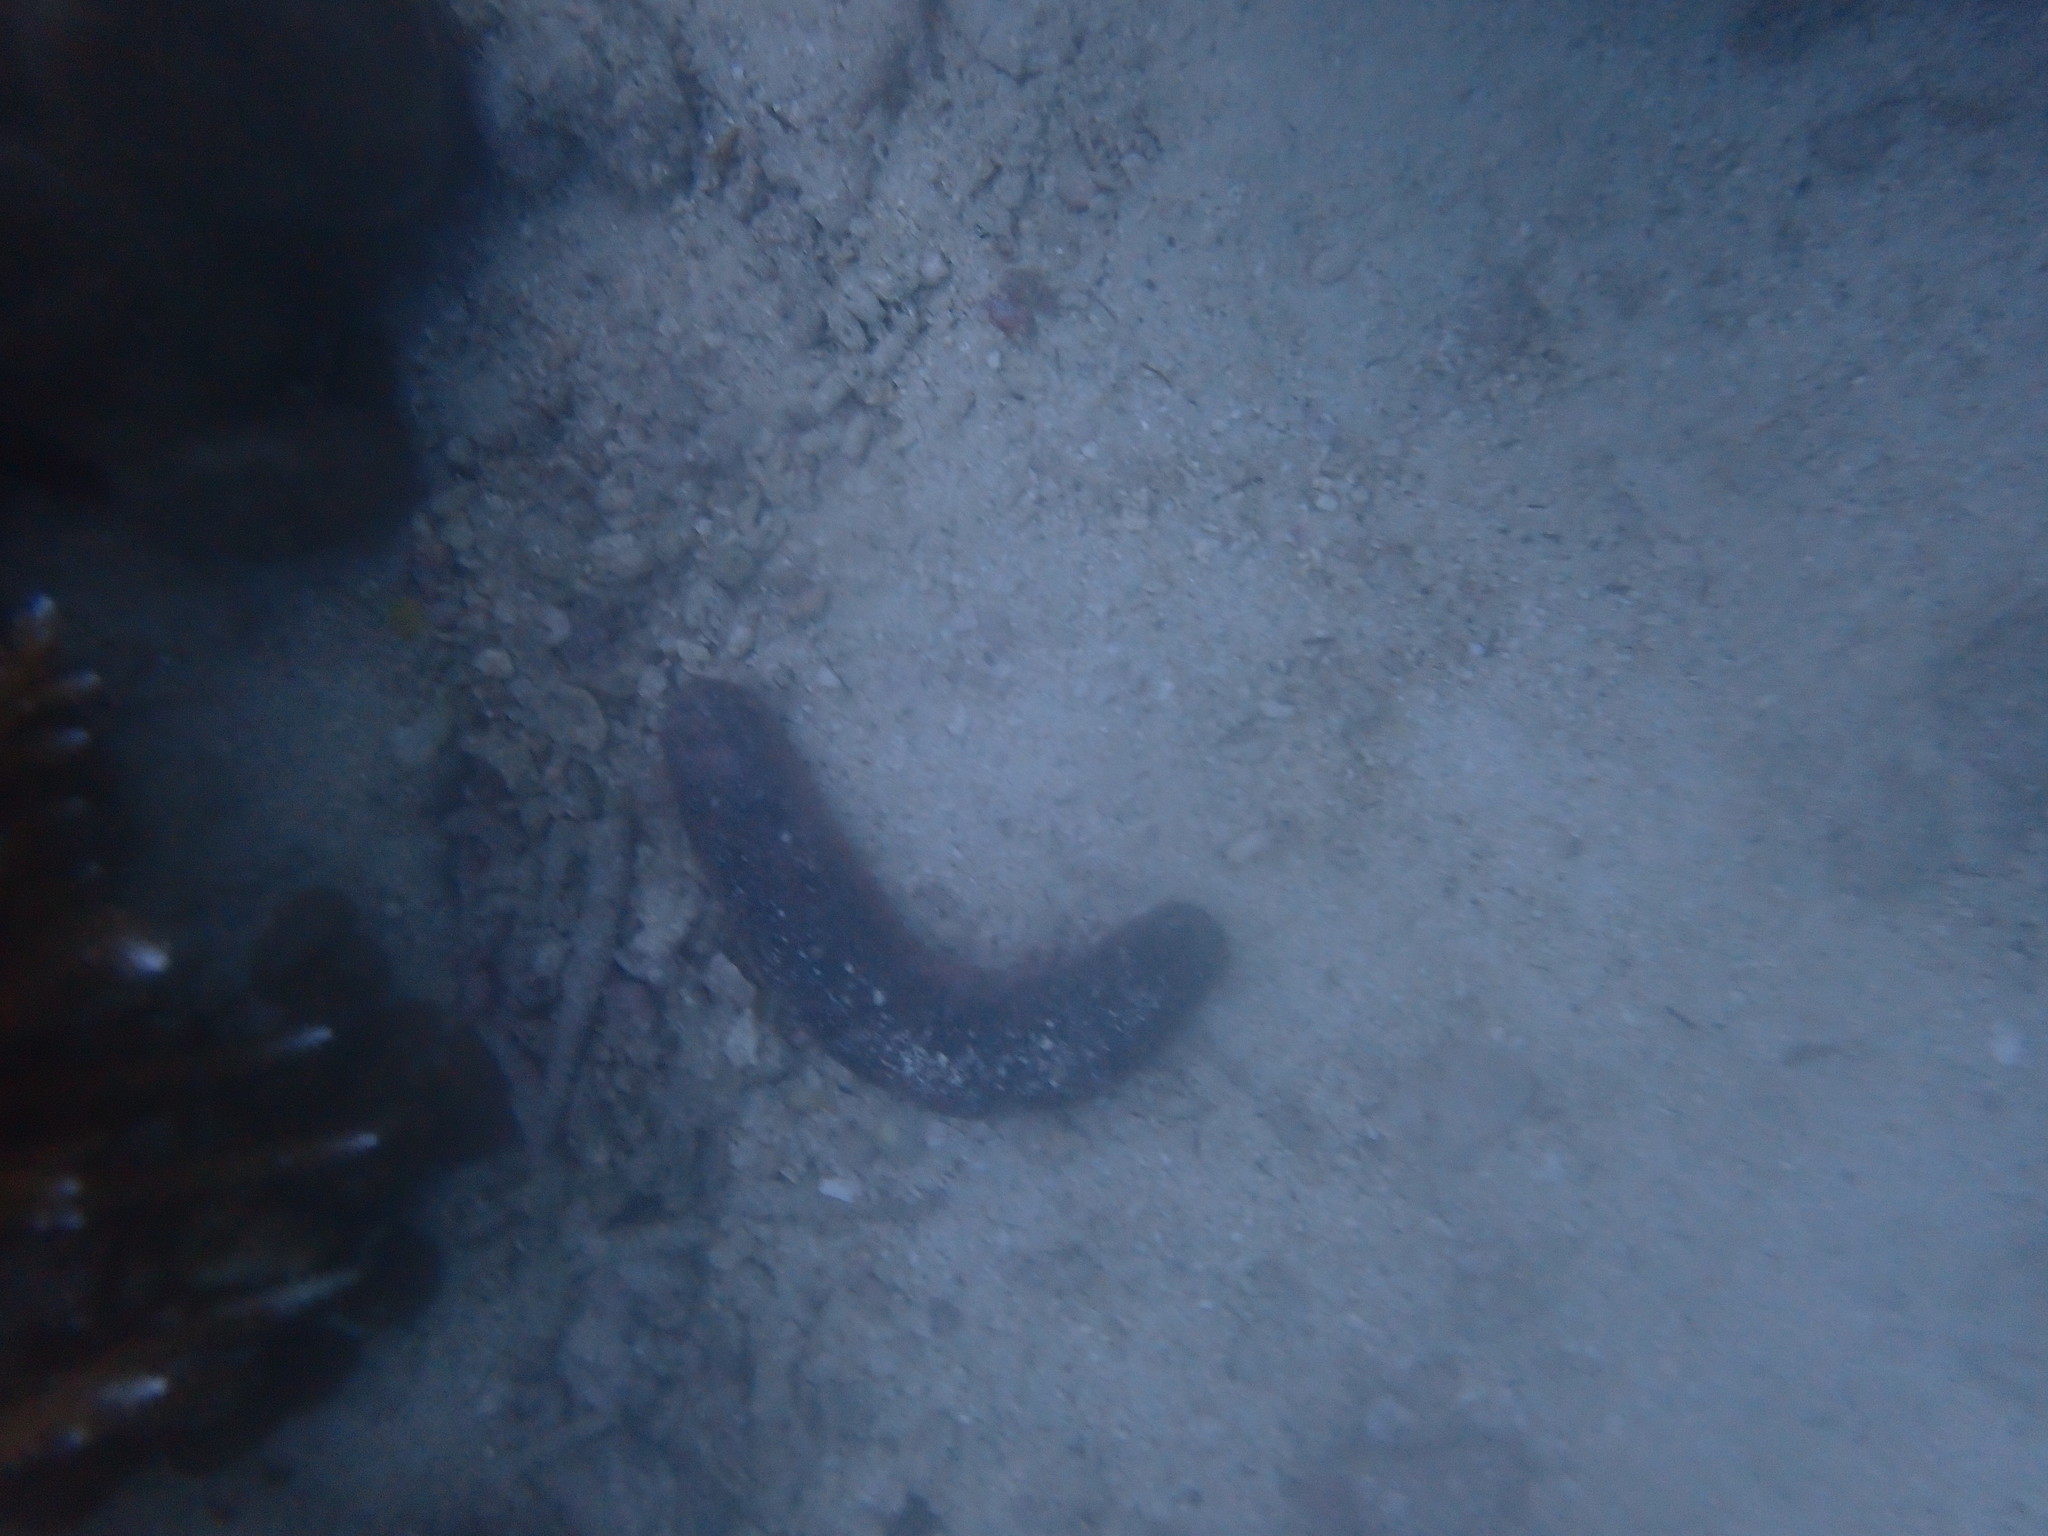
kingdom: Animalia
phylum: Echinodermata
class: Holothuroidea
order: Holothuriida
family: Holothuriidae
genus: Holothuria
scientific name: Holothuria edulis
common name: Pinkfish
